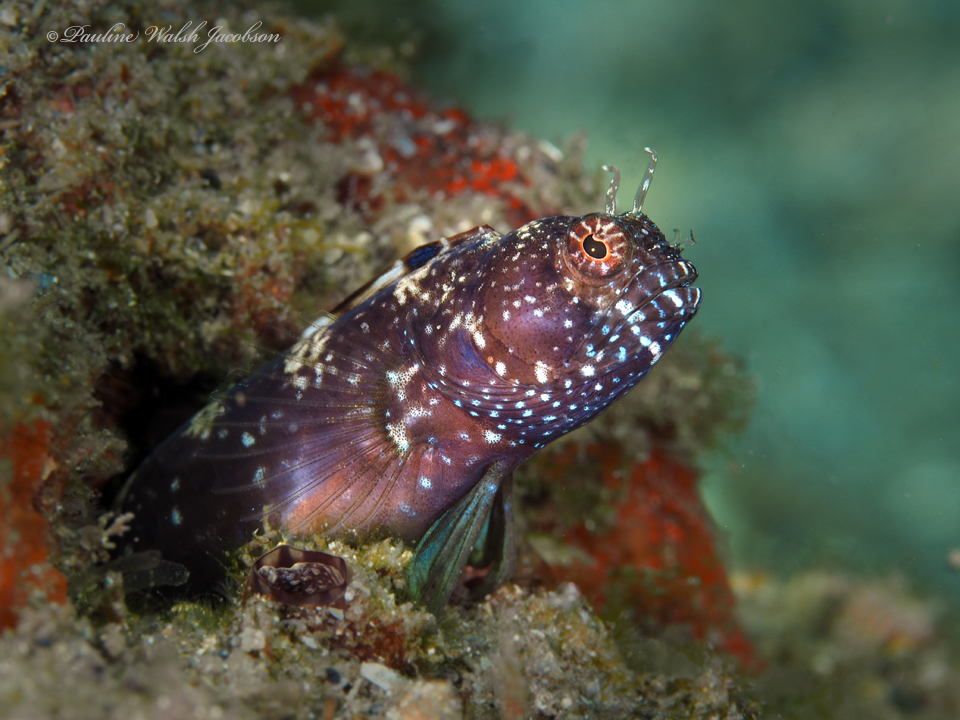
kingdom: Animalia
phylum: Chordata
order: Perciformes
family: Chaenopsidae
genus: Emblemaria
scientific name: Emblemaria pandionis
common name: Sailfin blenny
